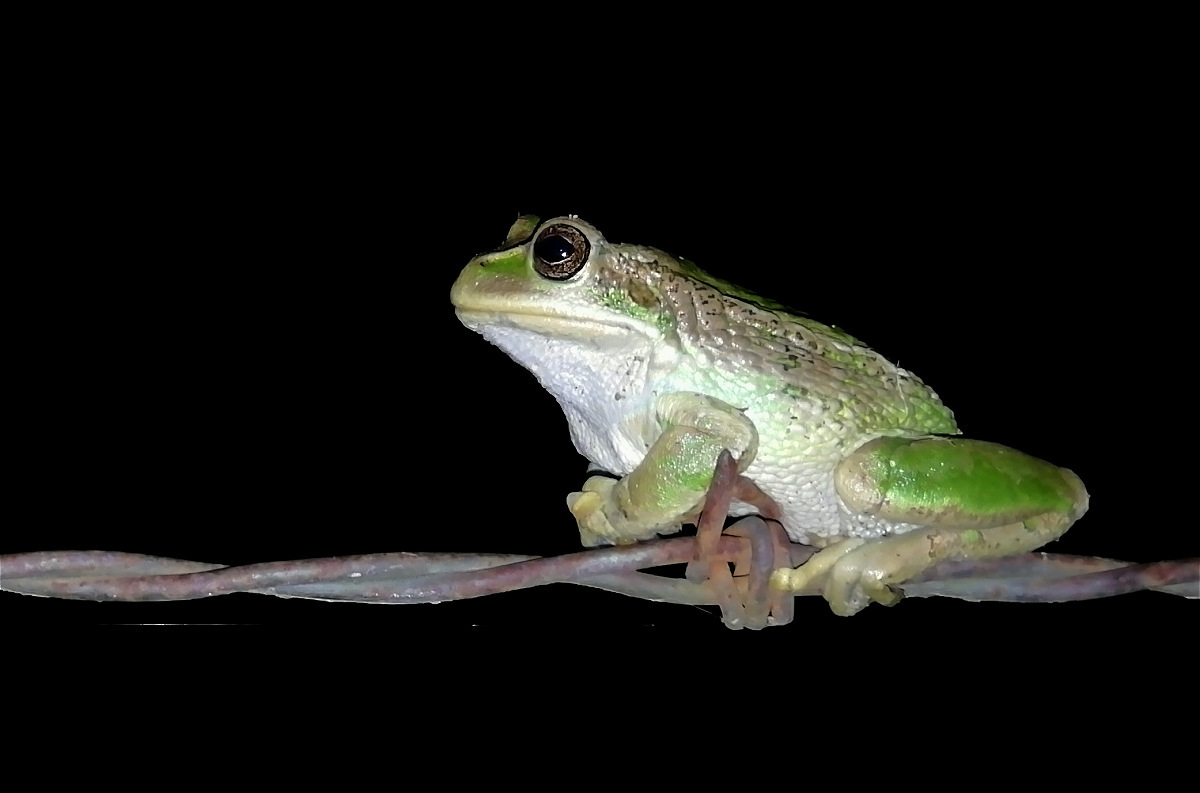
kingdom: Animalia
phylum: Chordata
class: Amphibia
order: Anura
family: Hemiphractidae
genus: Gastrotheca
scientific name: Gastrotheca cuencana
